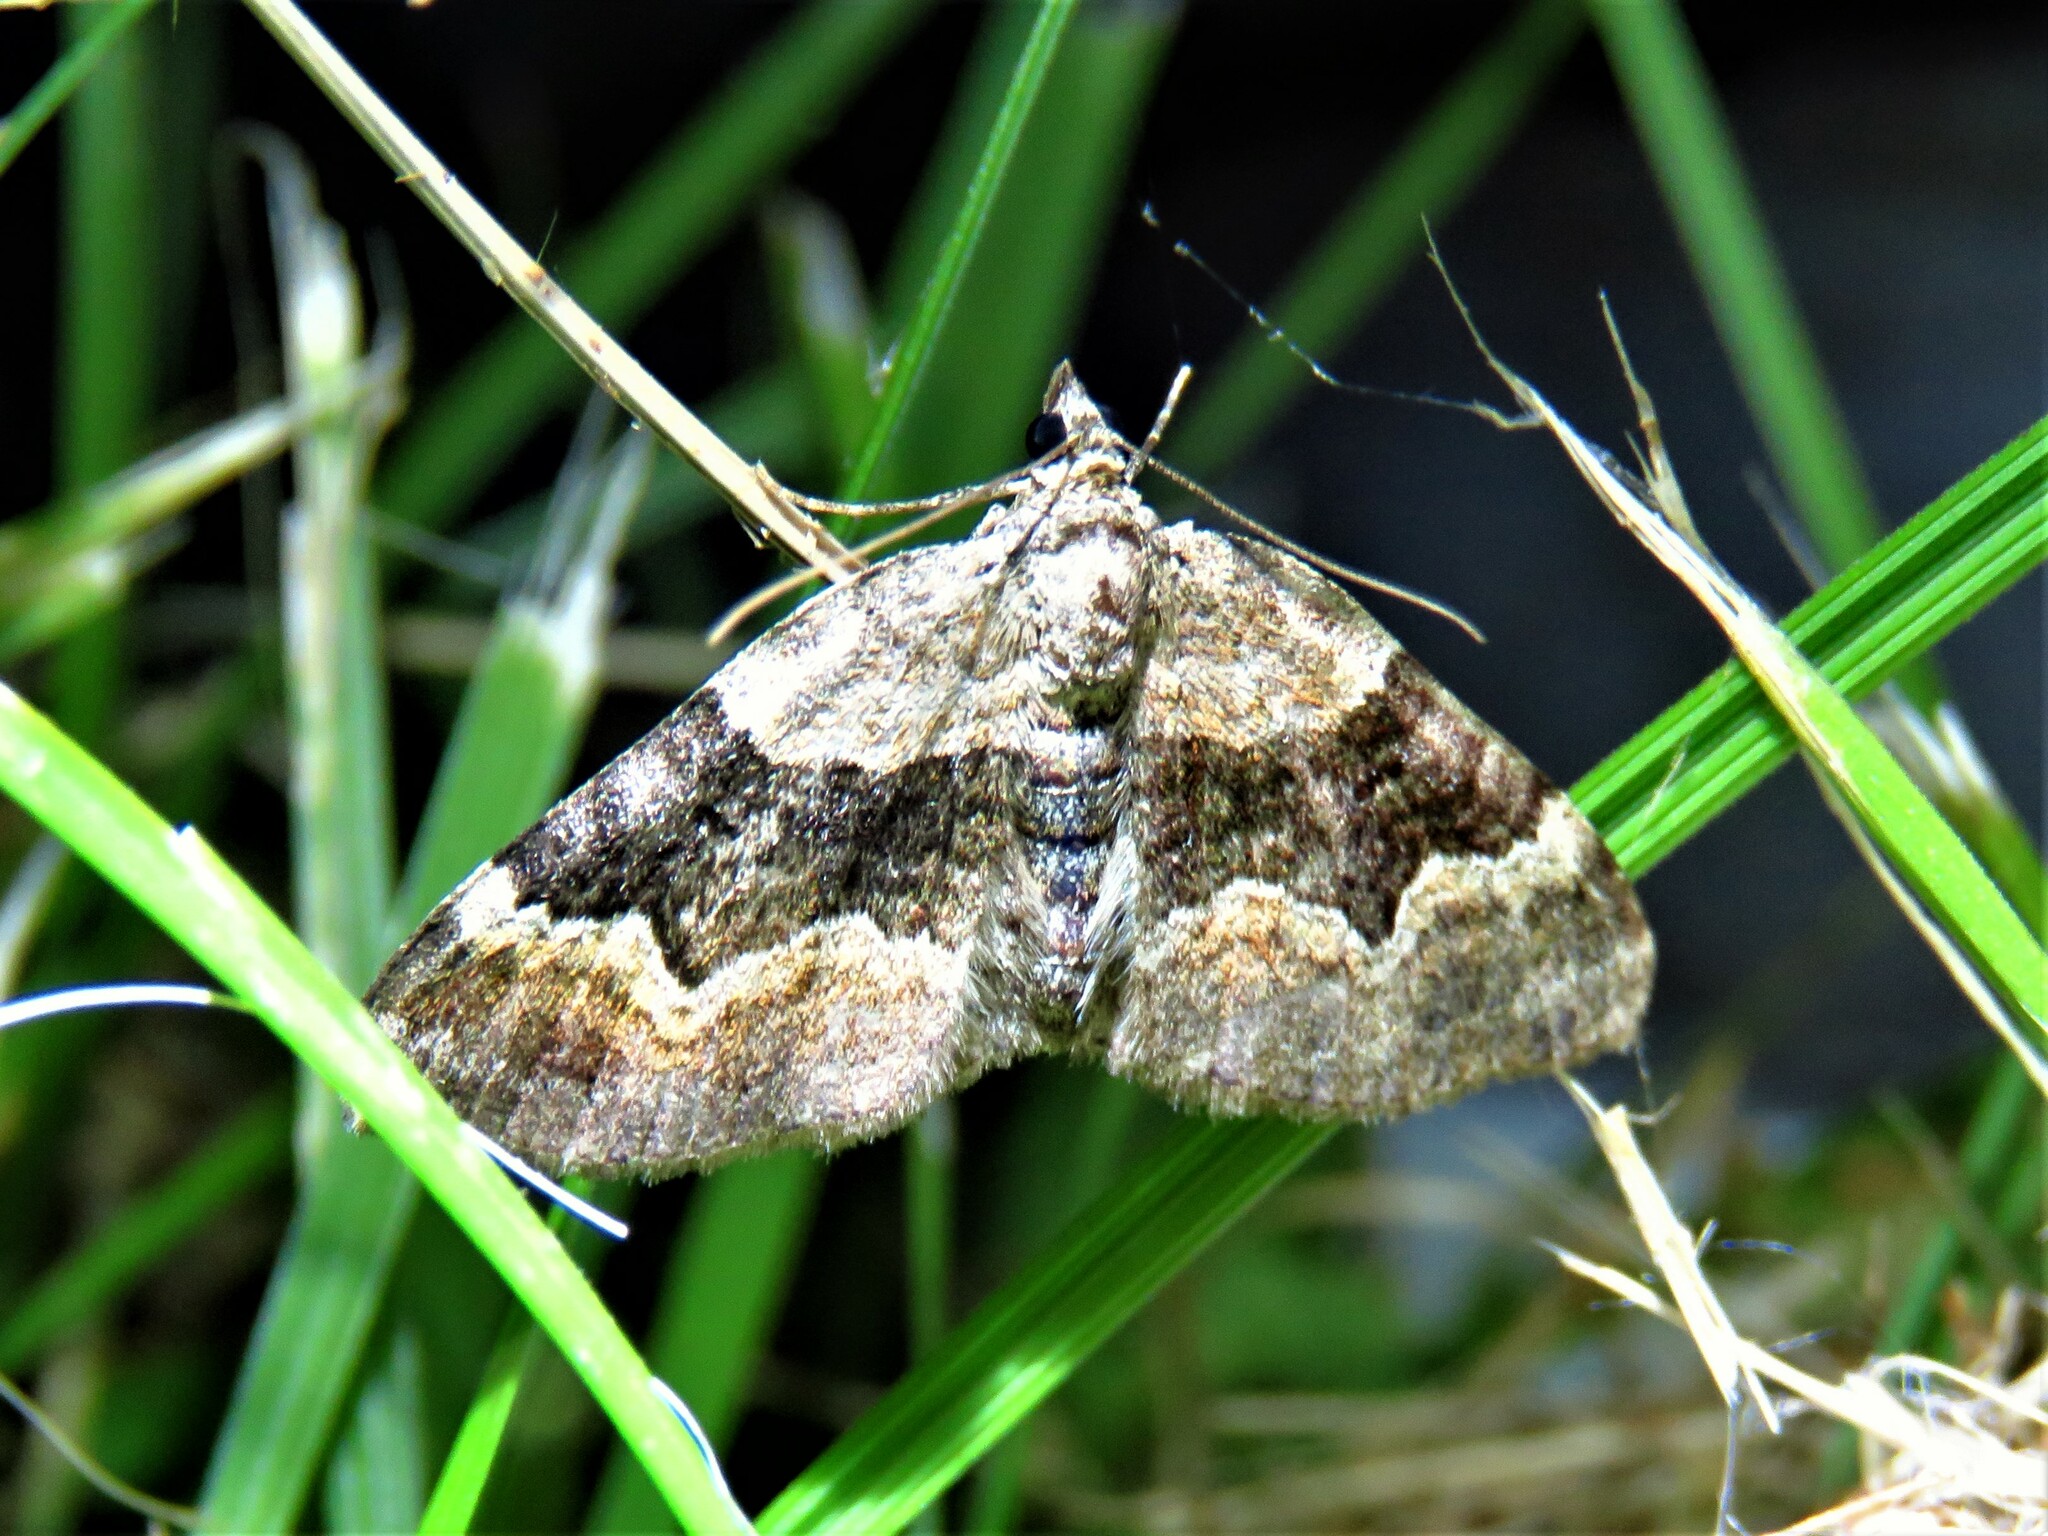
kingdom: Animalia
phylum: Arthropoda
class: Insecta
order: Lepidoptera
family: Geometridae
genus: Xanthorhoe
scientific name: Xanthorhoe quadrifasiata
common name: Large twin-spot carpet
